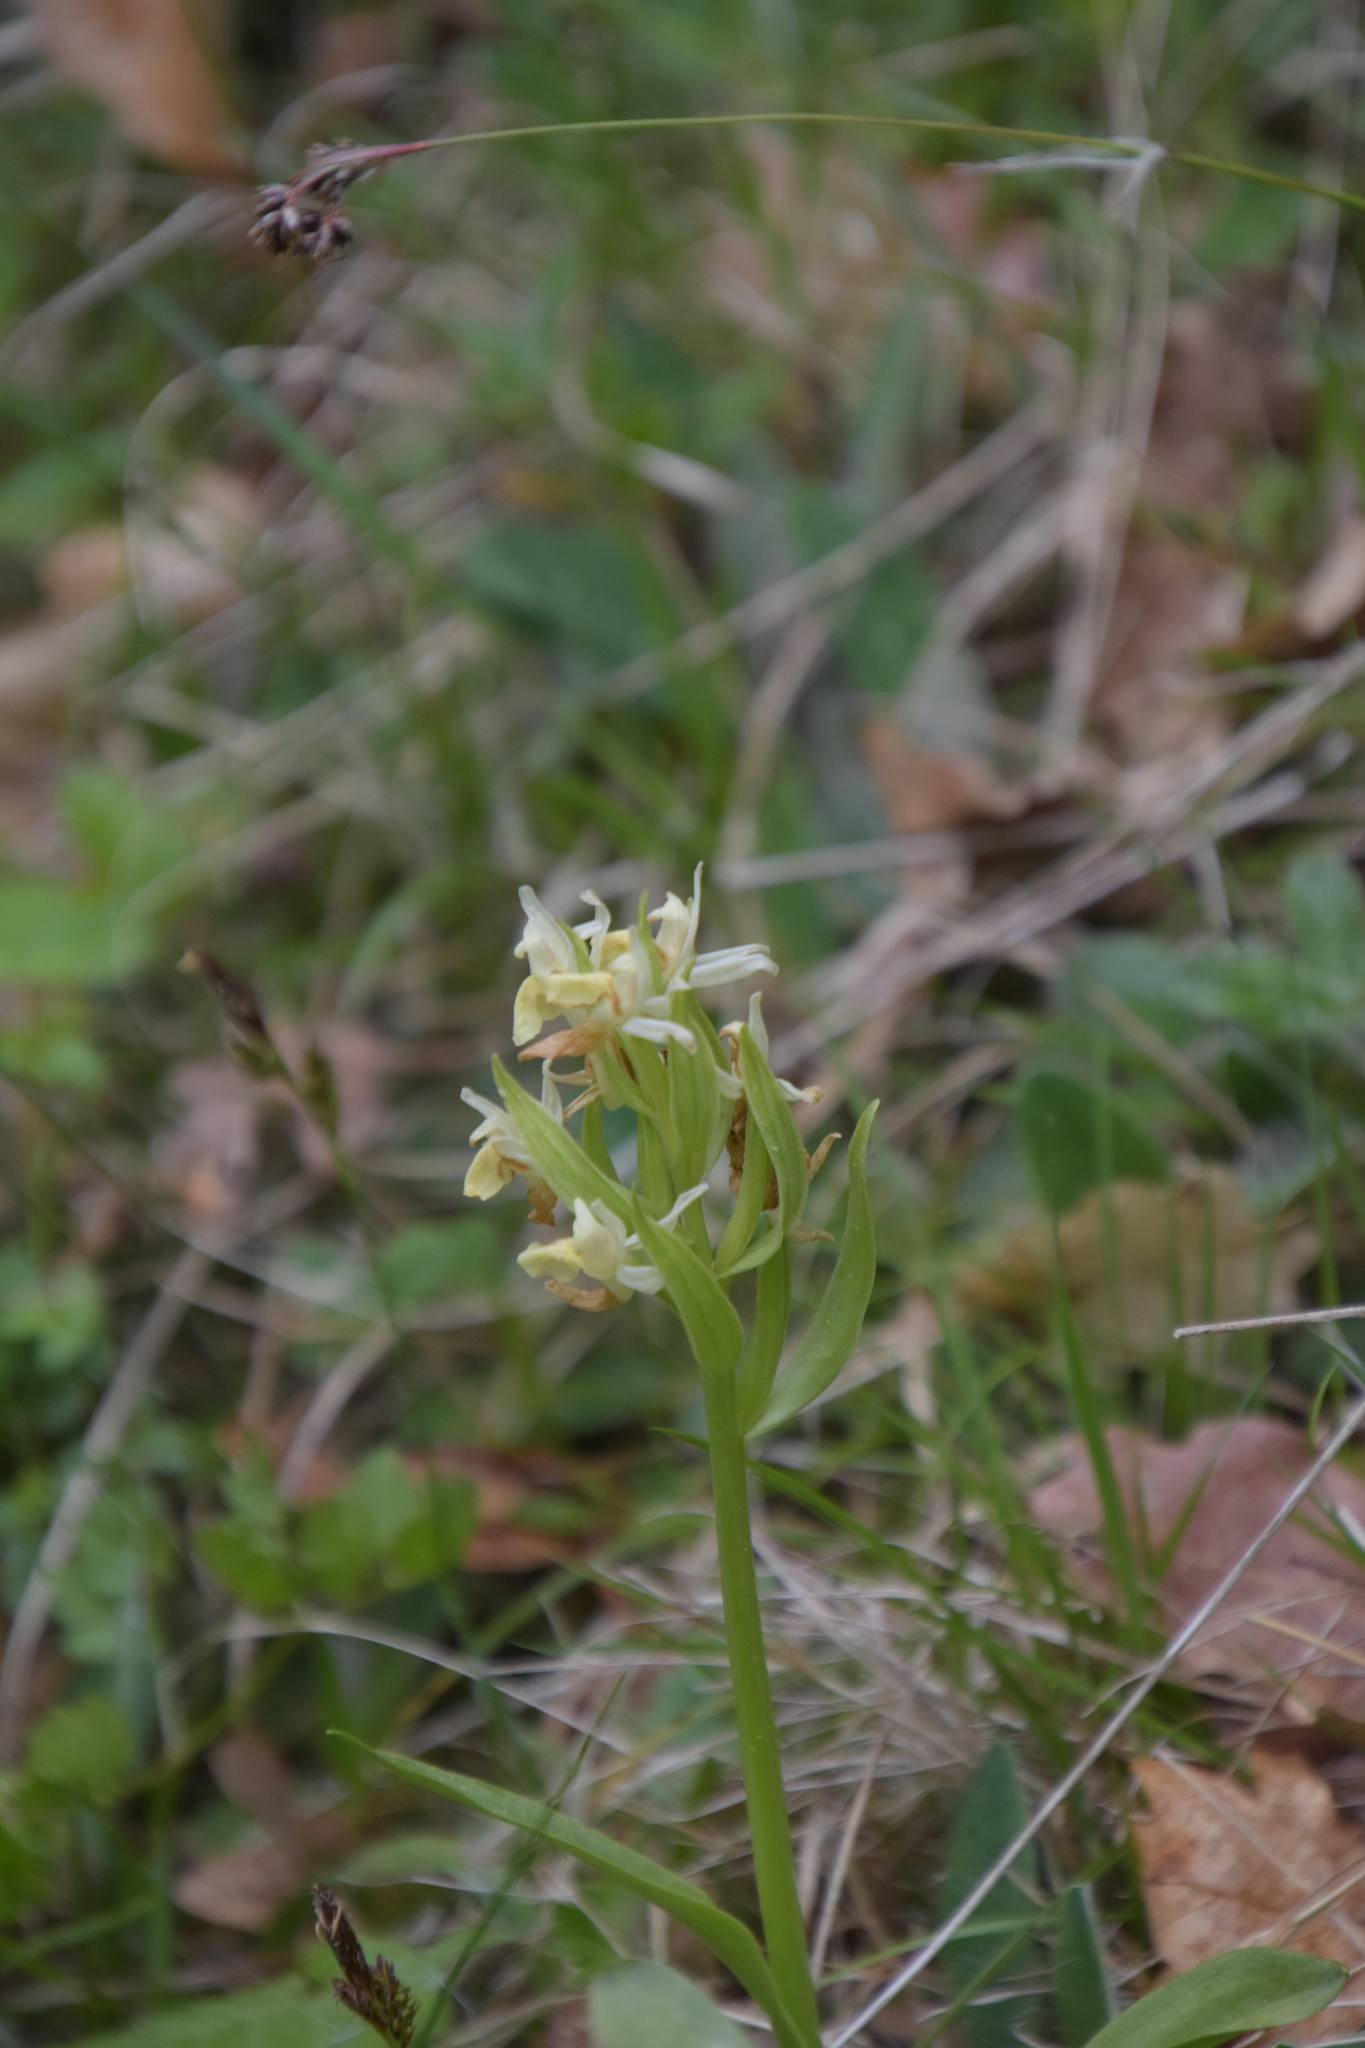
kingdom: Plantae
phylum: Tracheophyta
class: Liliopsida
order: Asparagales
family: Orchidaceae
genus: Dactylorhiza
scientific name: Dactylorhiza sambucina
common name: Elder-flowered orchid
